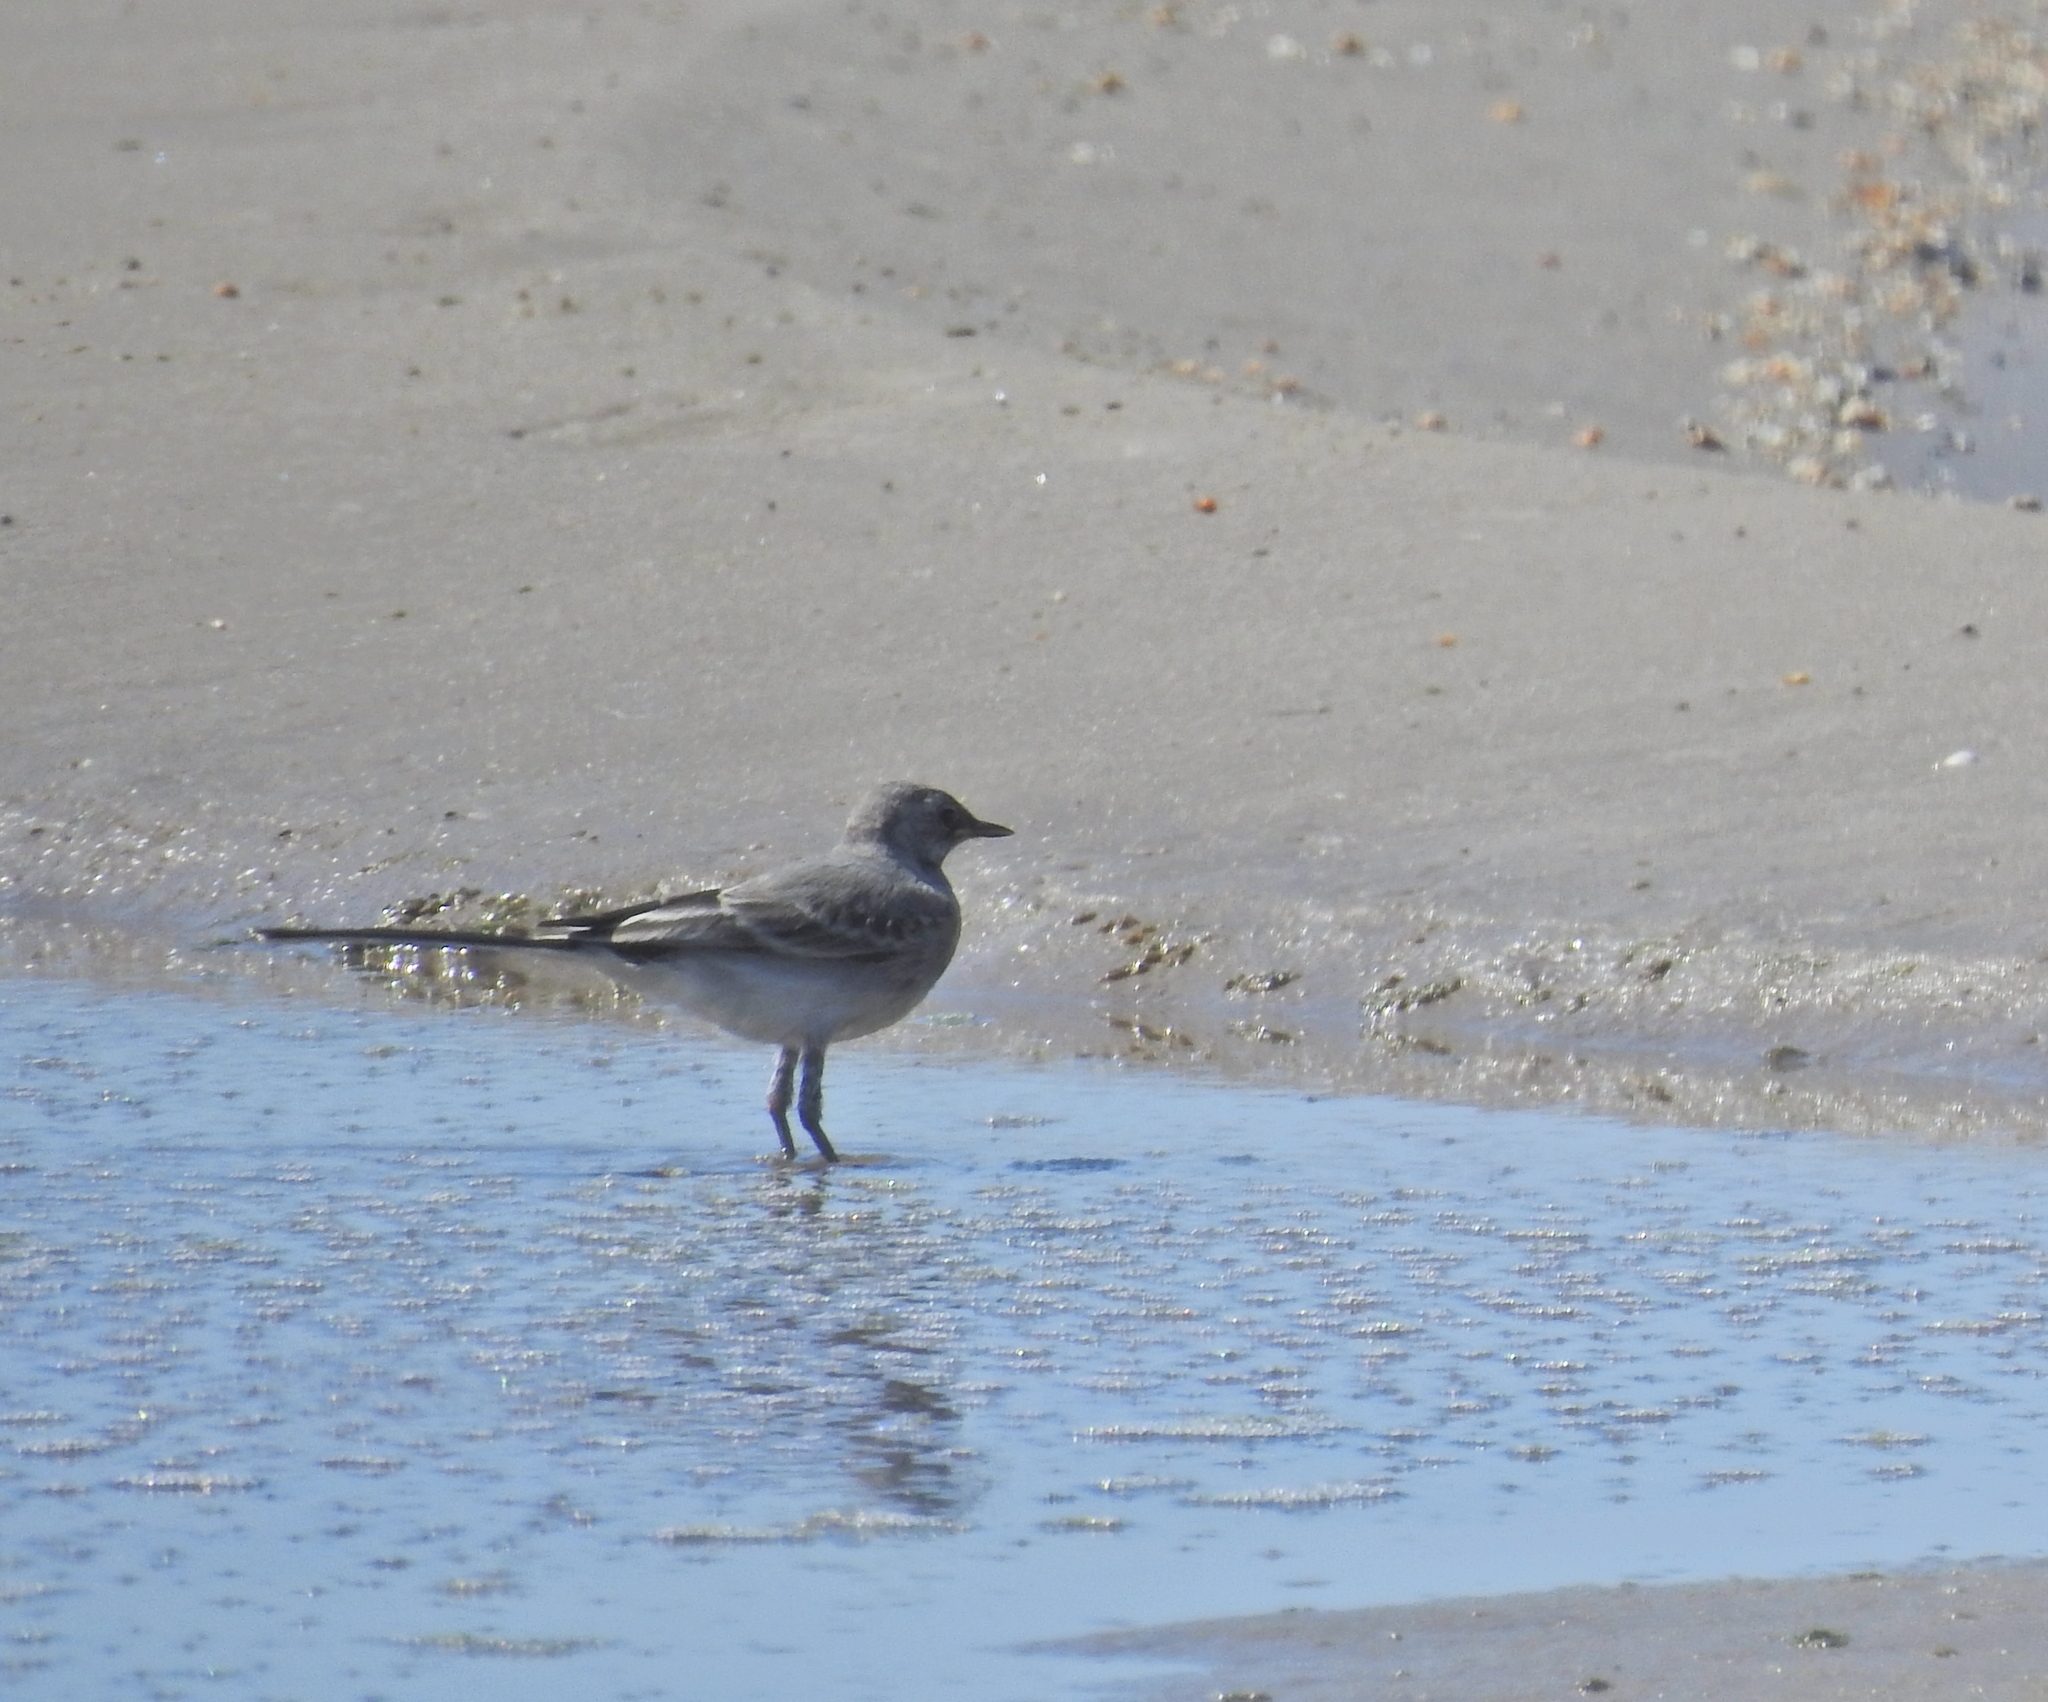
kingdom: Animalia
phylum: Chordata
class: Aves
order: Passeriformes
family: Motacillidae
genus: Motacilla
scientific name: Motacilla alba
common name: White wagtail
